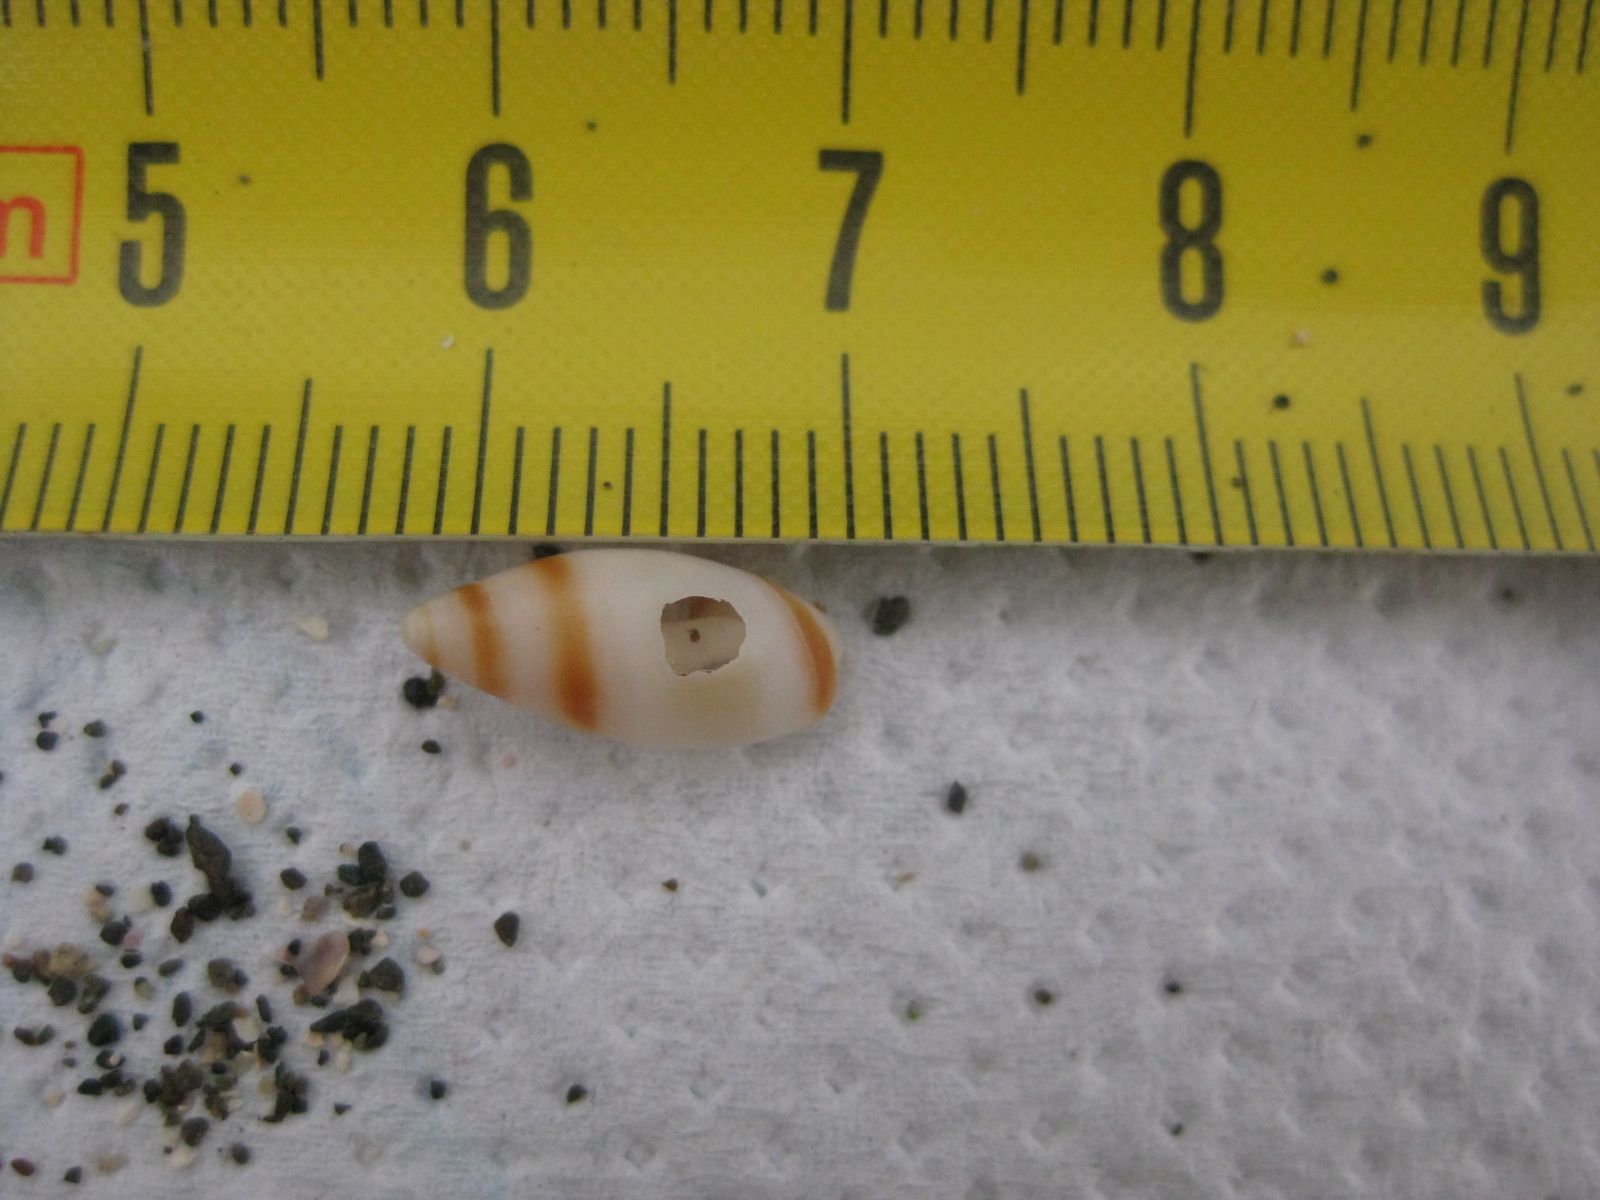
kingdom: Animalia
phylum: Mollusca
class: Gastropoda
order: Neogastropoda
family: Ancillariidae
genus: Amalda
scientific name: Amalda novaezelandiae
